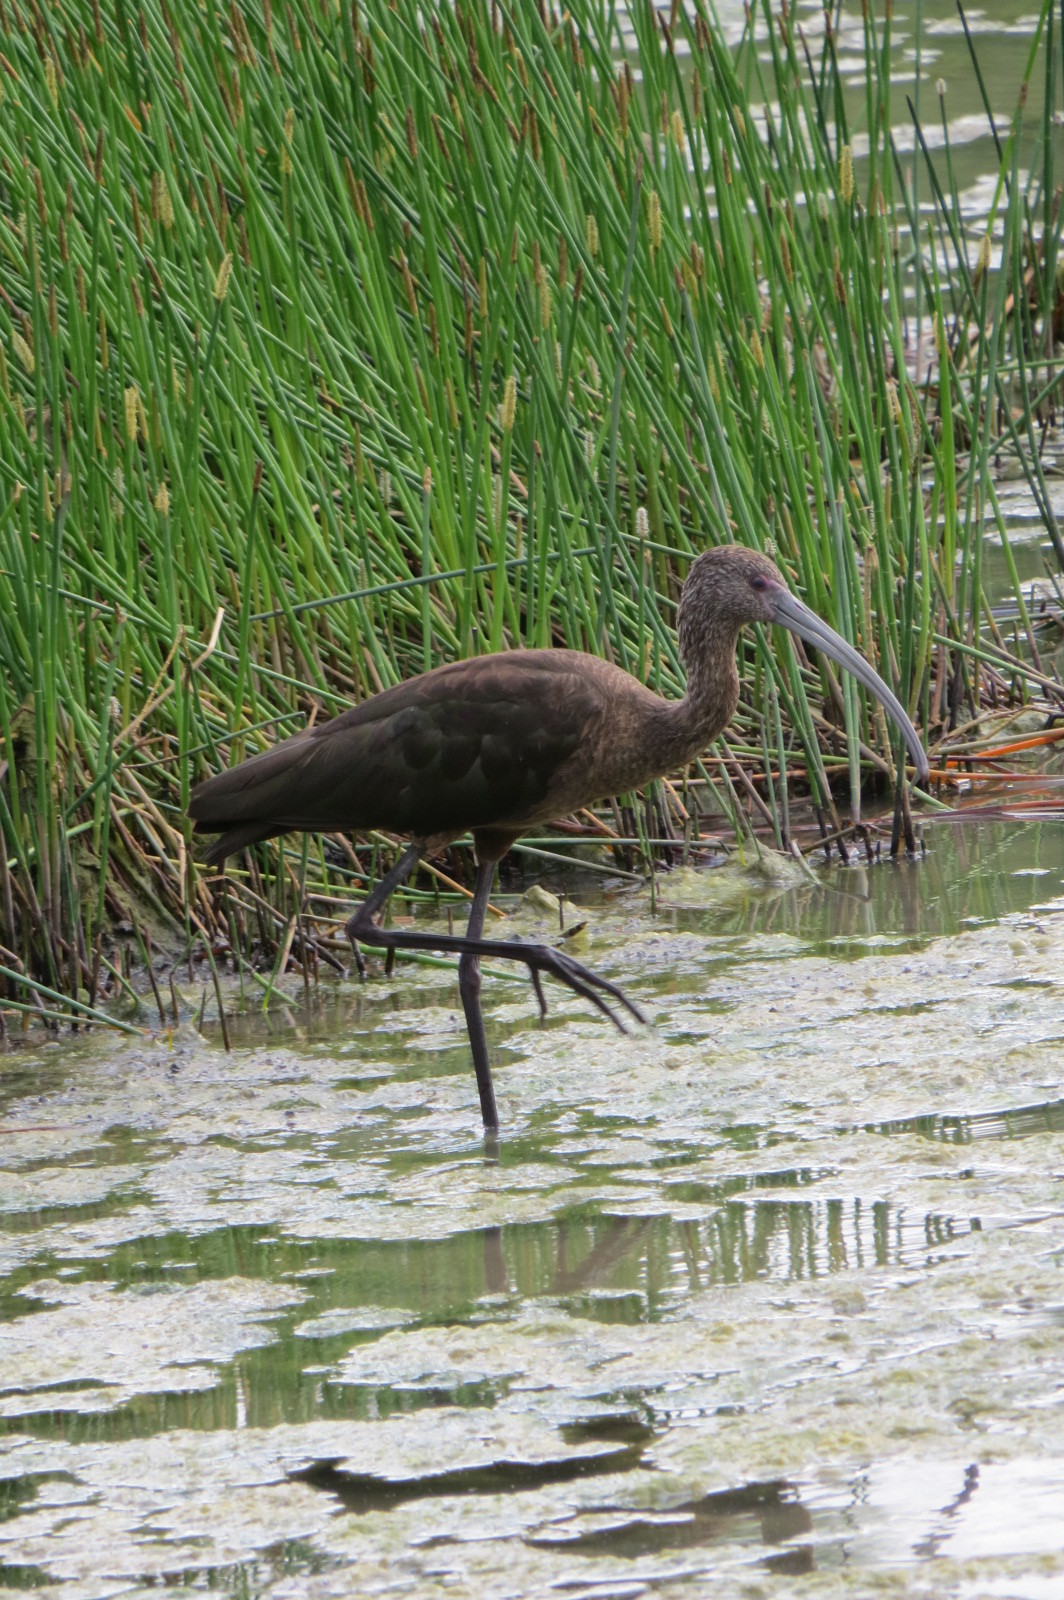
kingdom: Animalia
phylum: Chordata
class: Aves
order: Pelecaniformes
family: Threskiornithidae
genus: Plegadis
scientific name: Plegadis chihi
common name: White-faced ibis
